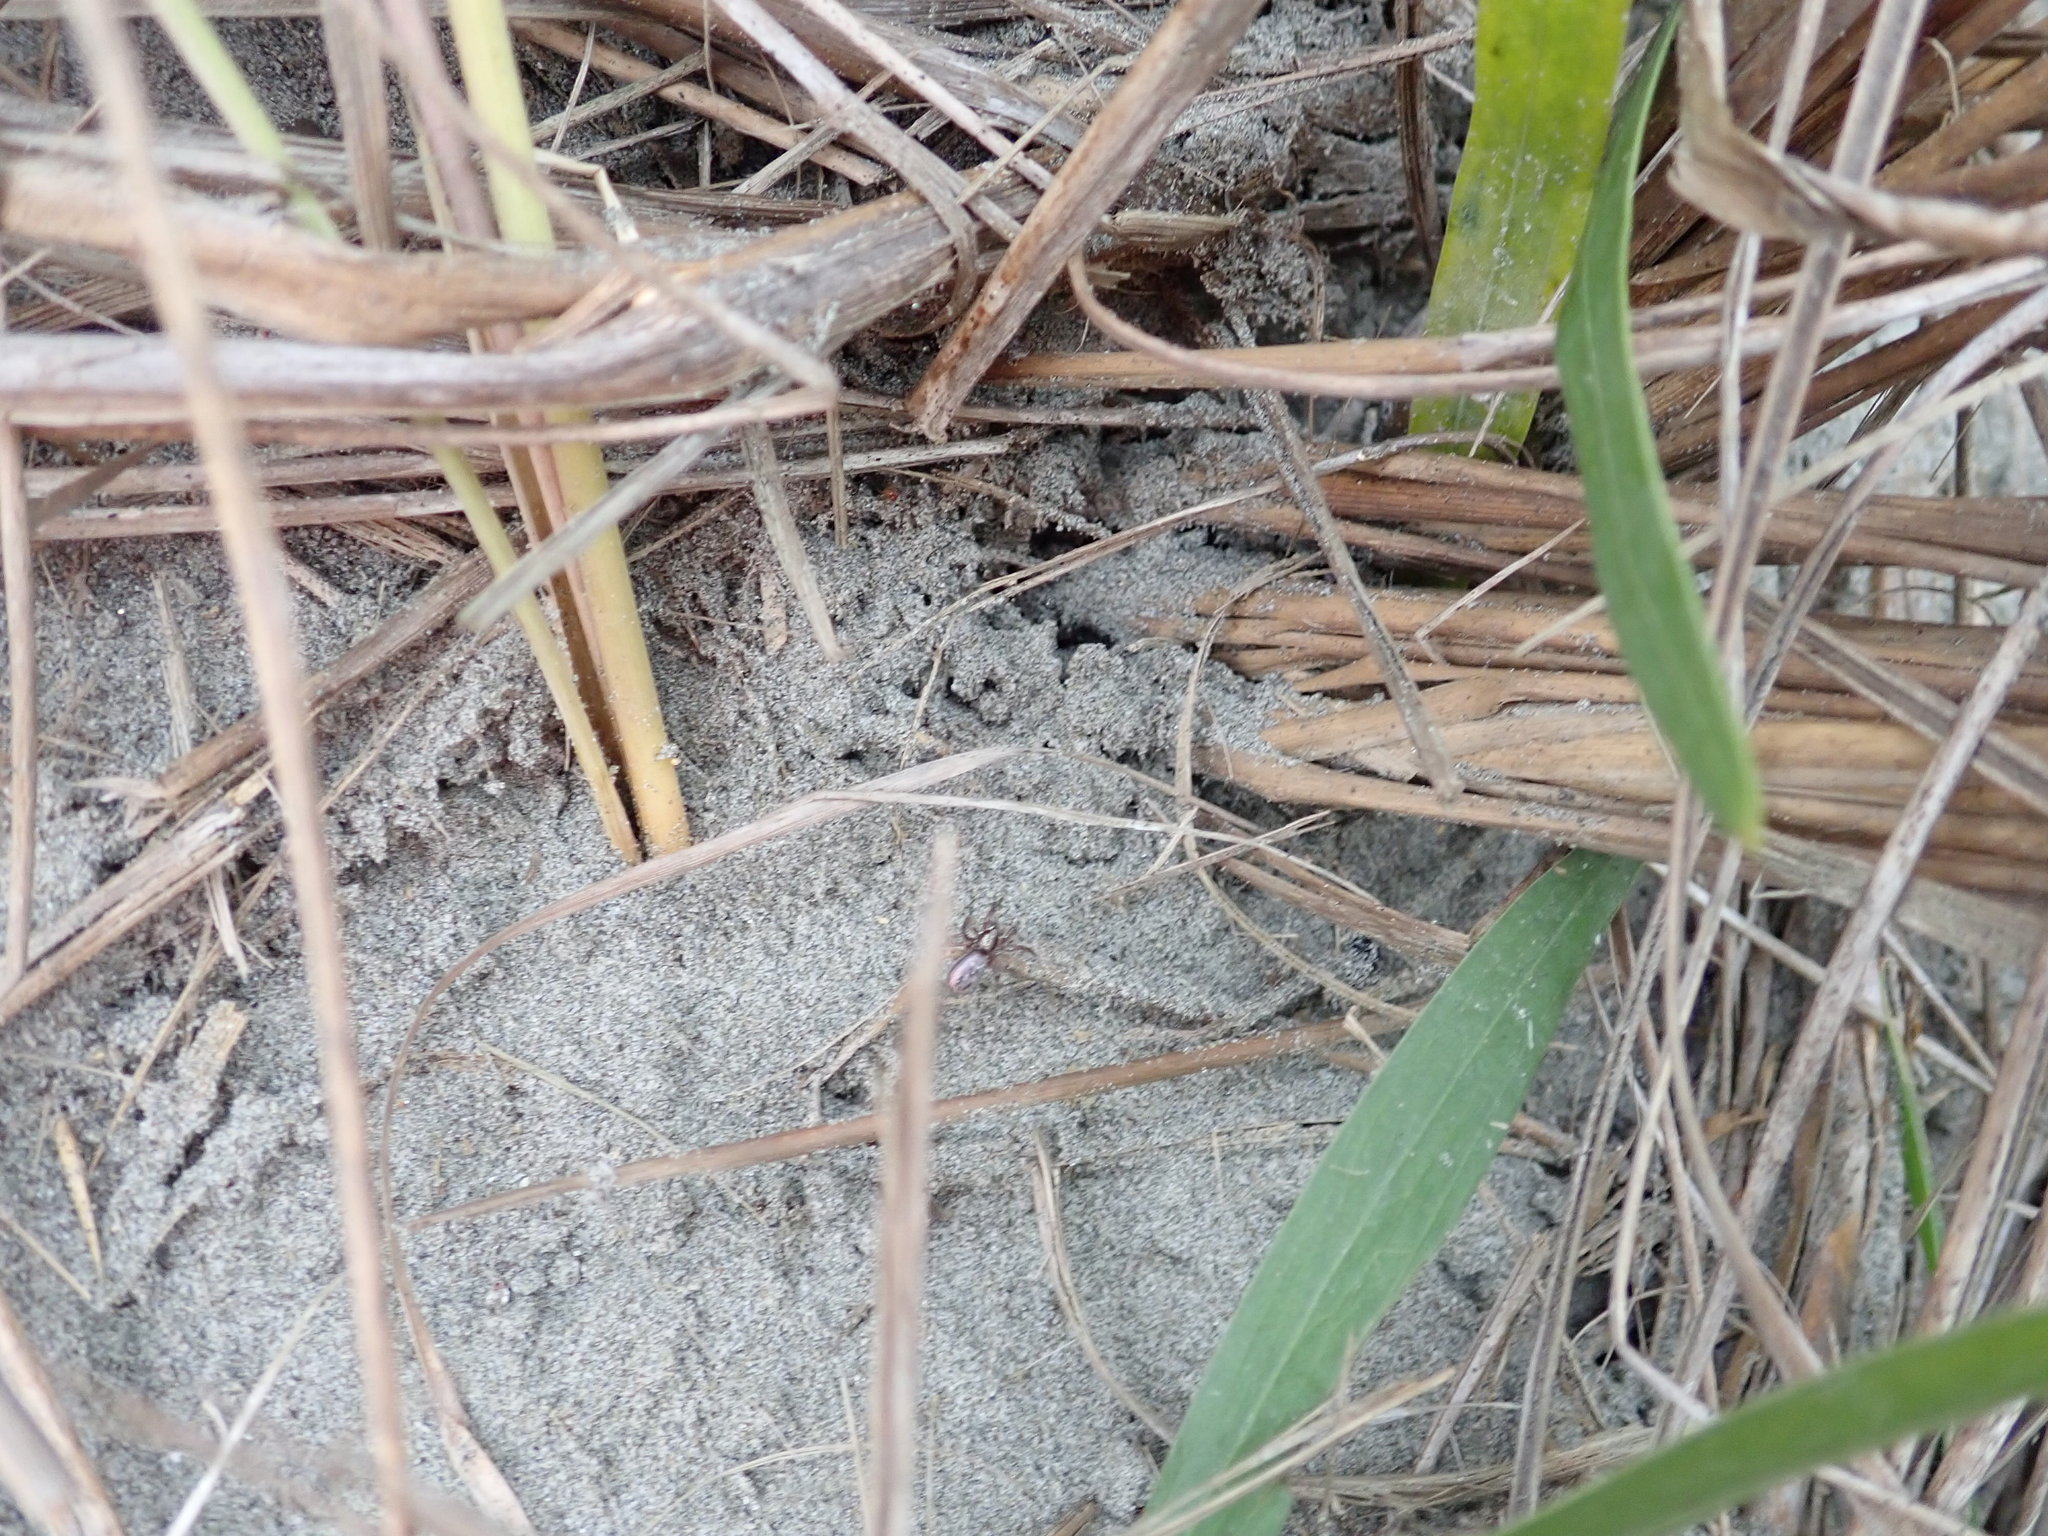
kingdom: Animalia
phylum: Arthropoda
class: Arachnida
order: Araneae
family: Gnaphosidae
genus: Scotophaeus
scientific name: Scotophaeus pretiosus
